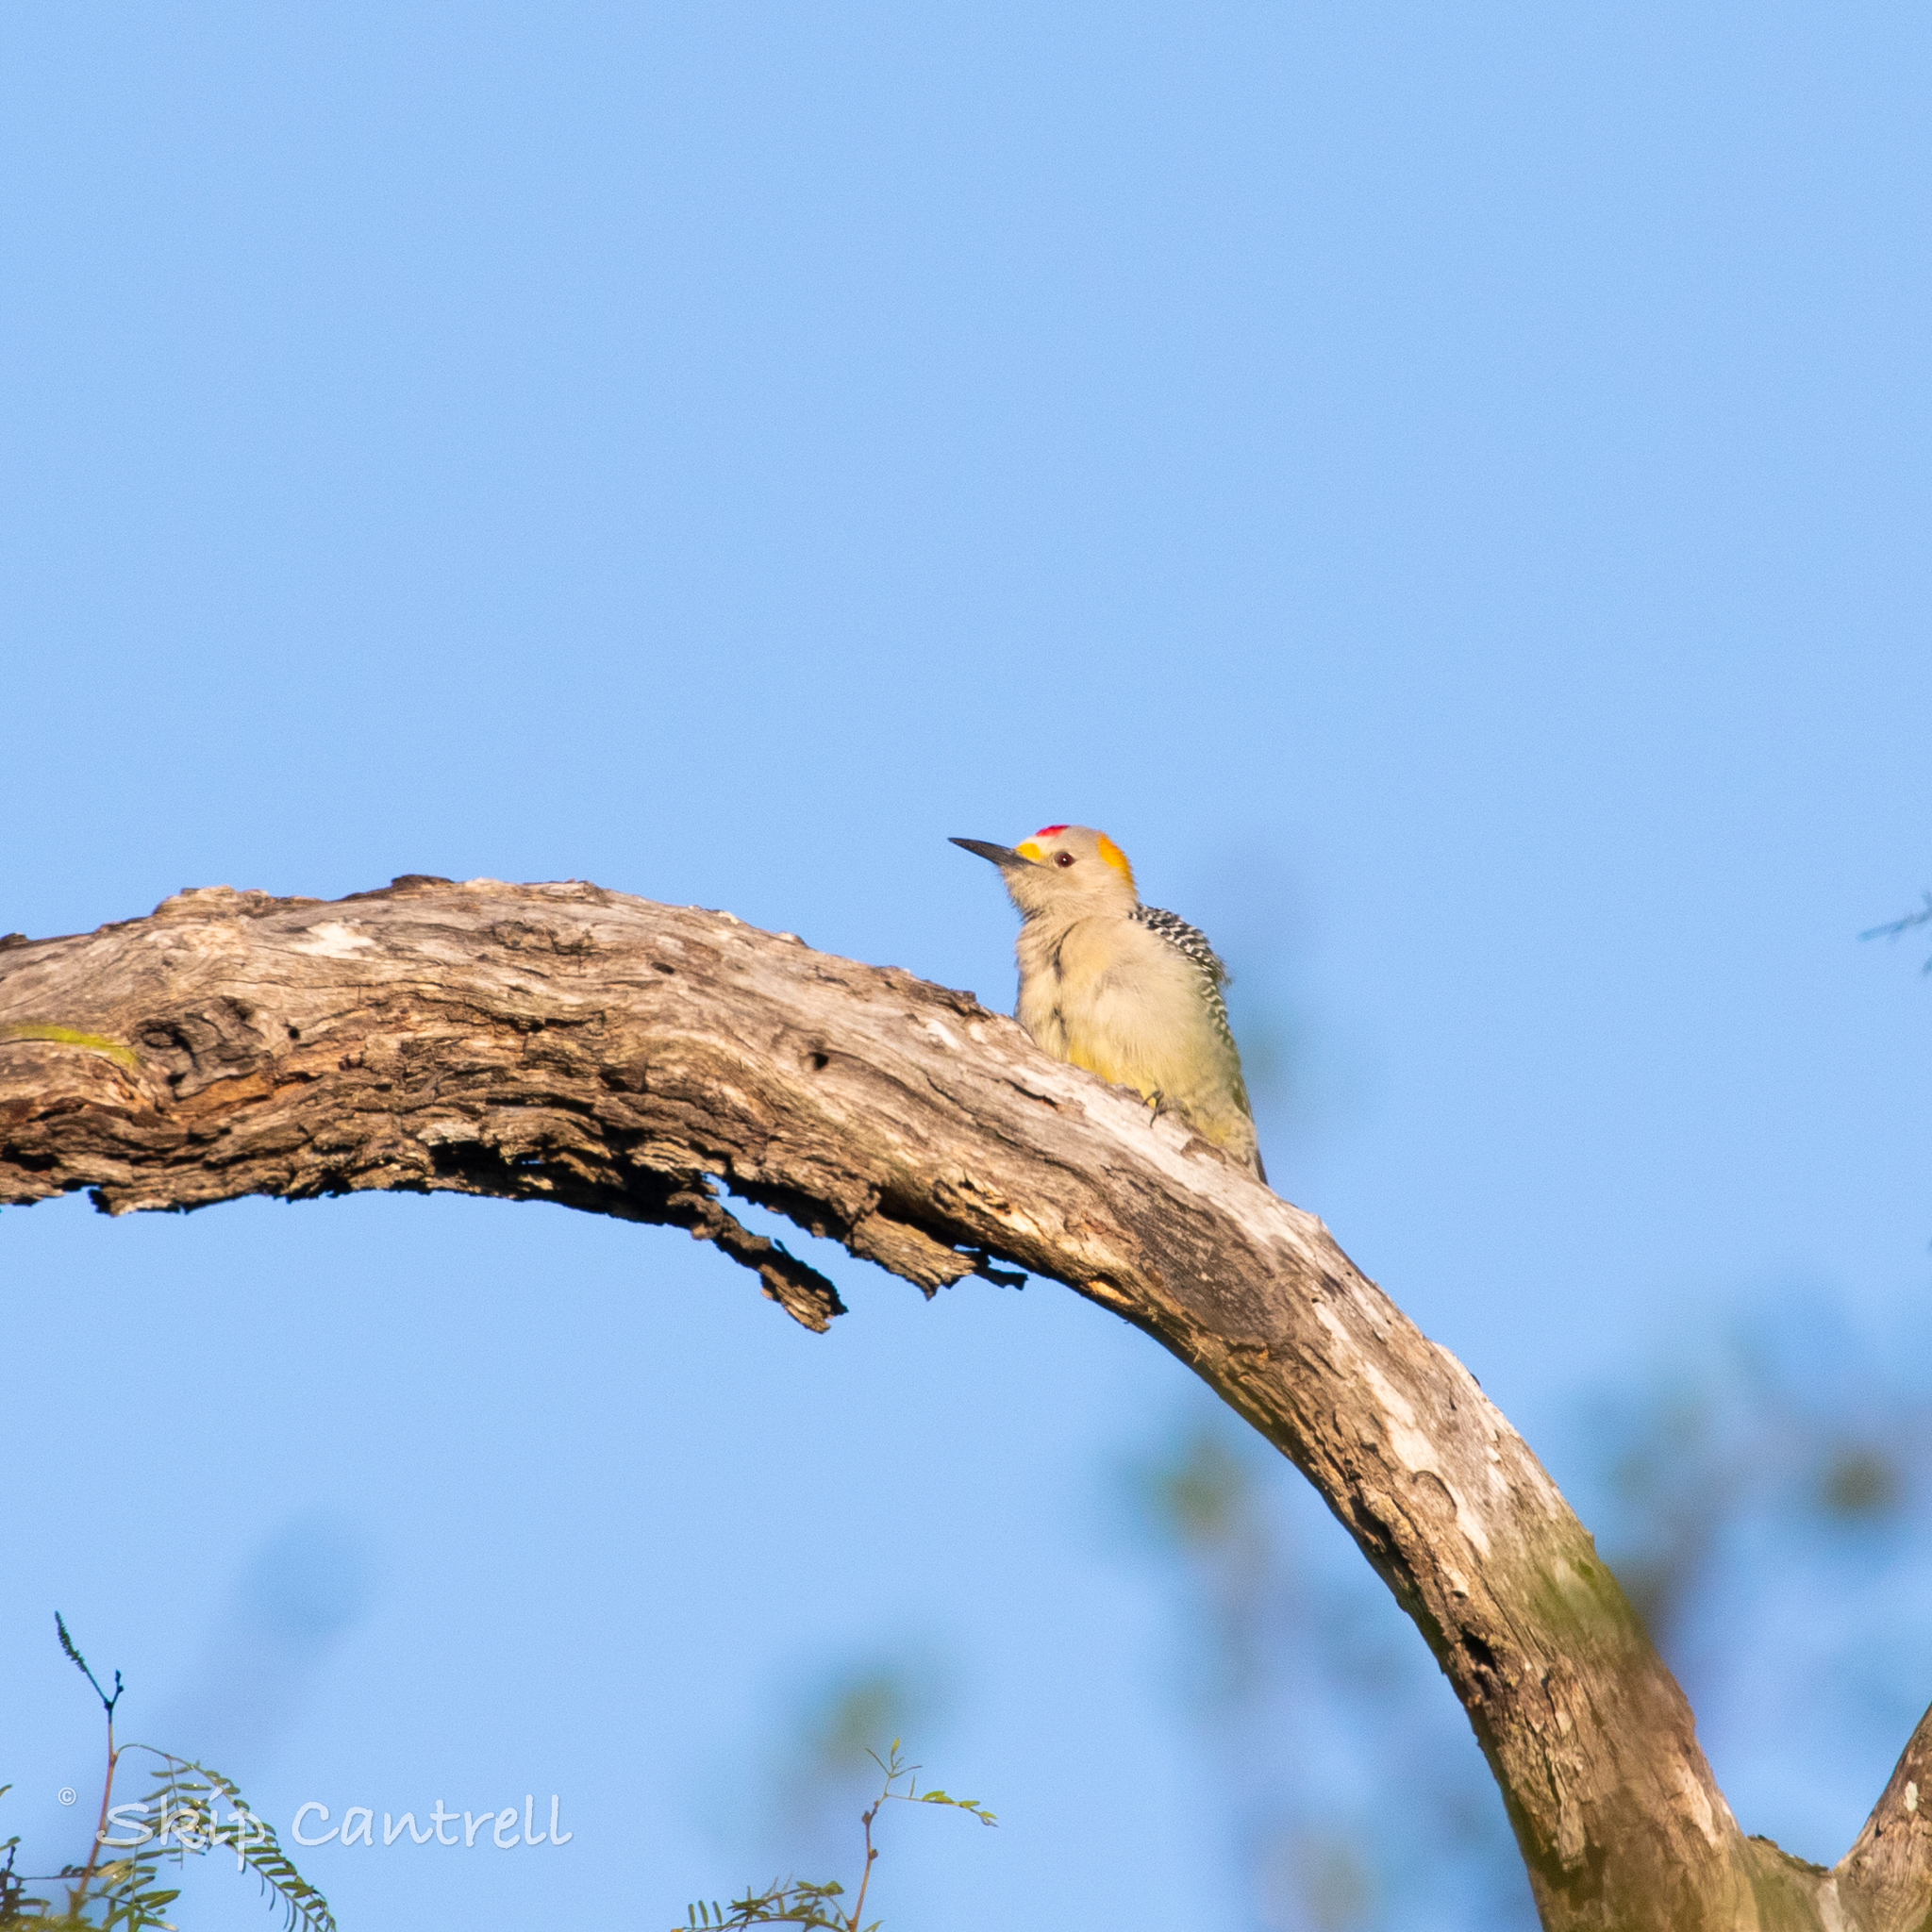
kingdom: Animalia
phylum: Chordata
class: Aves
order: Piciformes
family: Picidae
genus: Melanerpes
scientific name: Melanerpes aurifrons
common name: Golden-fronted woodpecker
